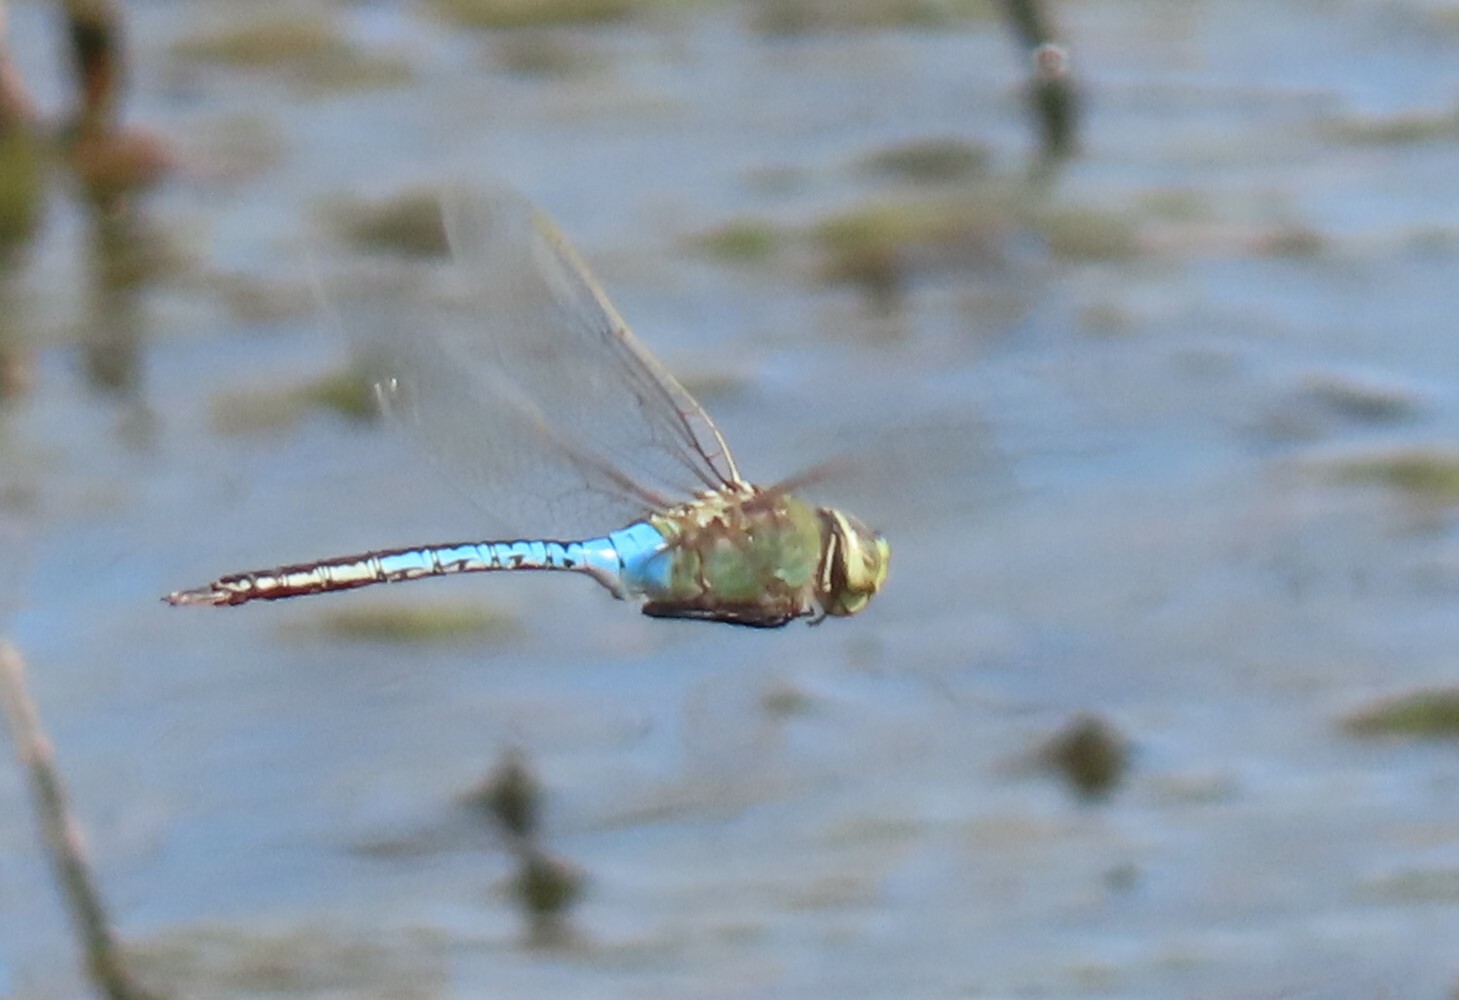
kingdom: Animalia
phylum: Arthropoda
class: Insecta
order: Odonata
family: Aeshnidae
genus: Anax
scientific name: Anax junius
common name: Common green darner
